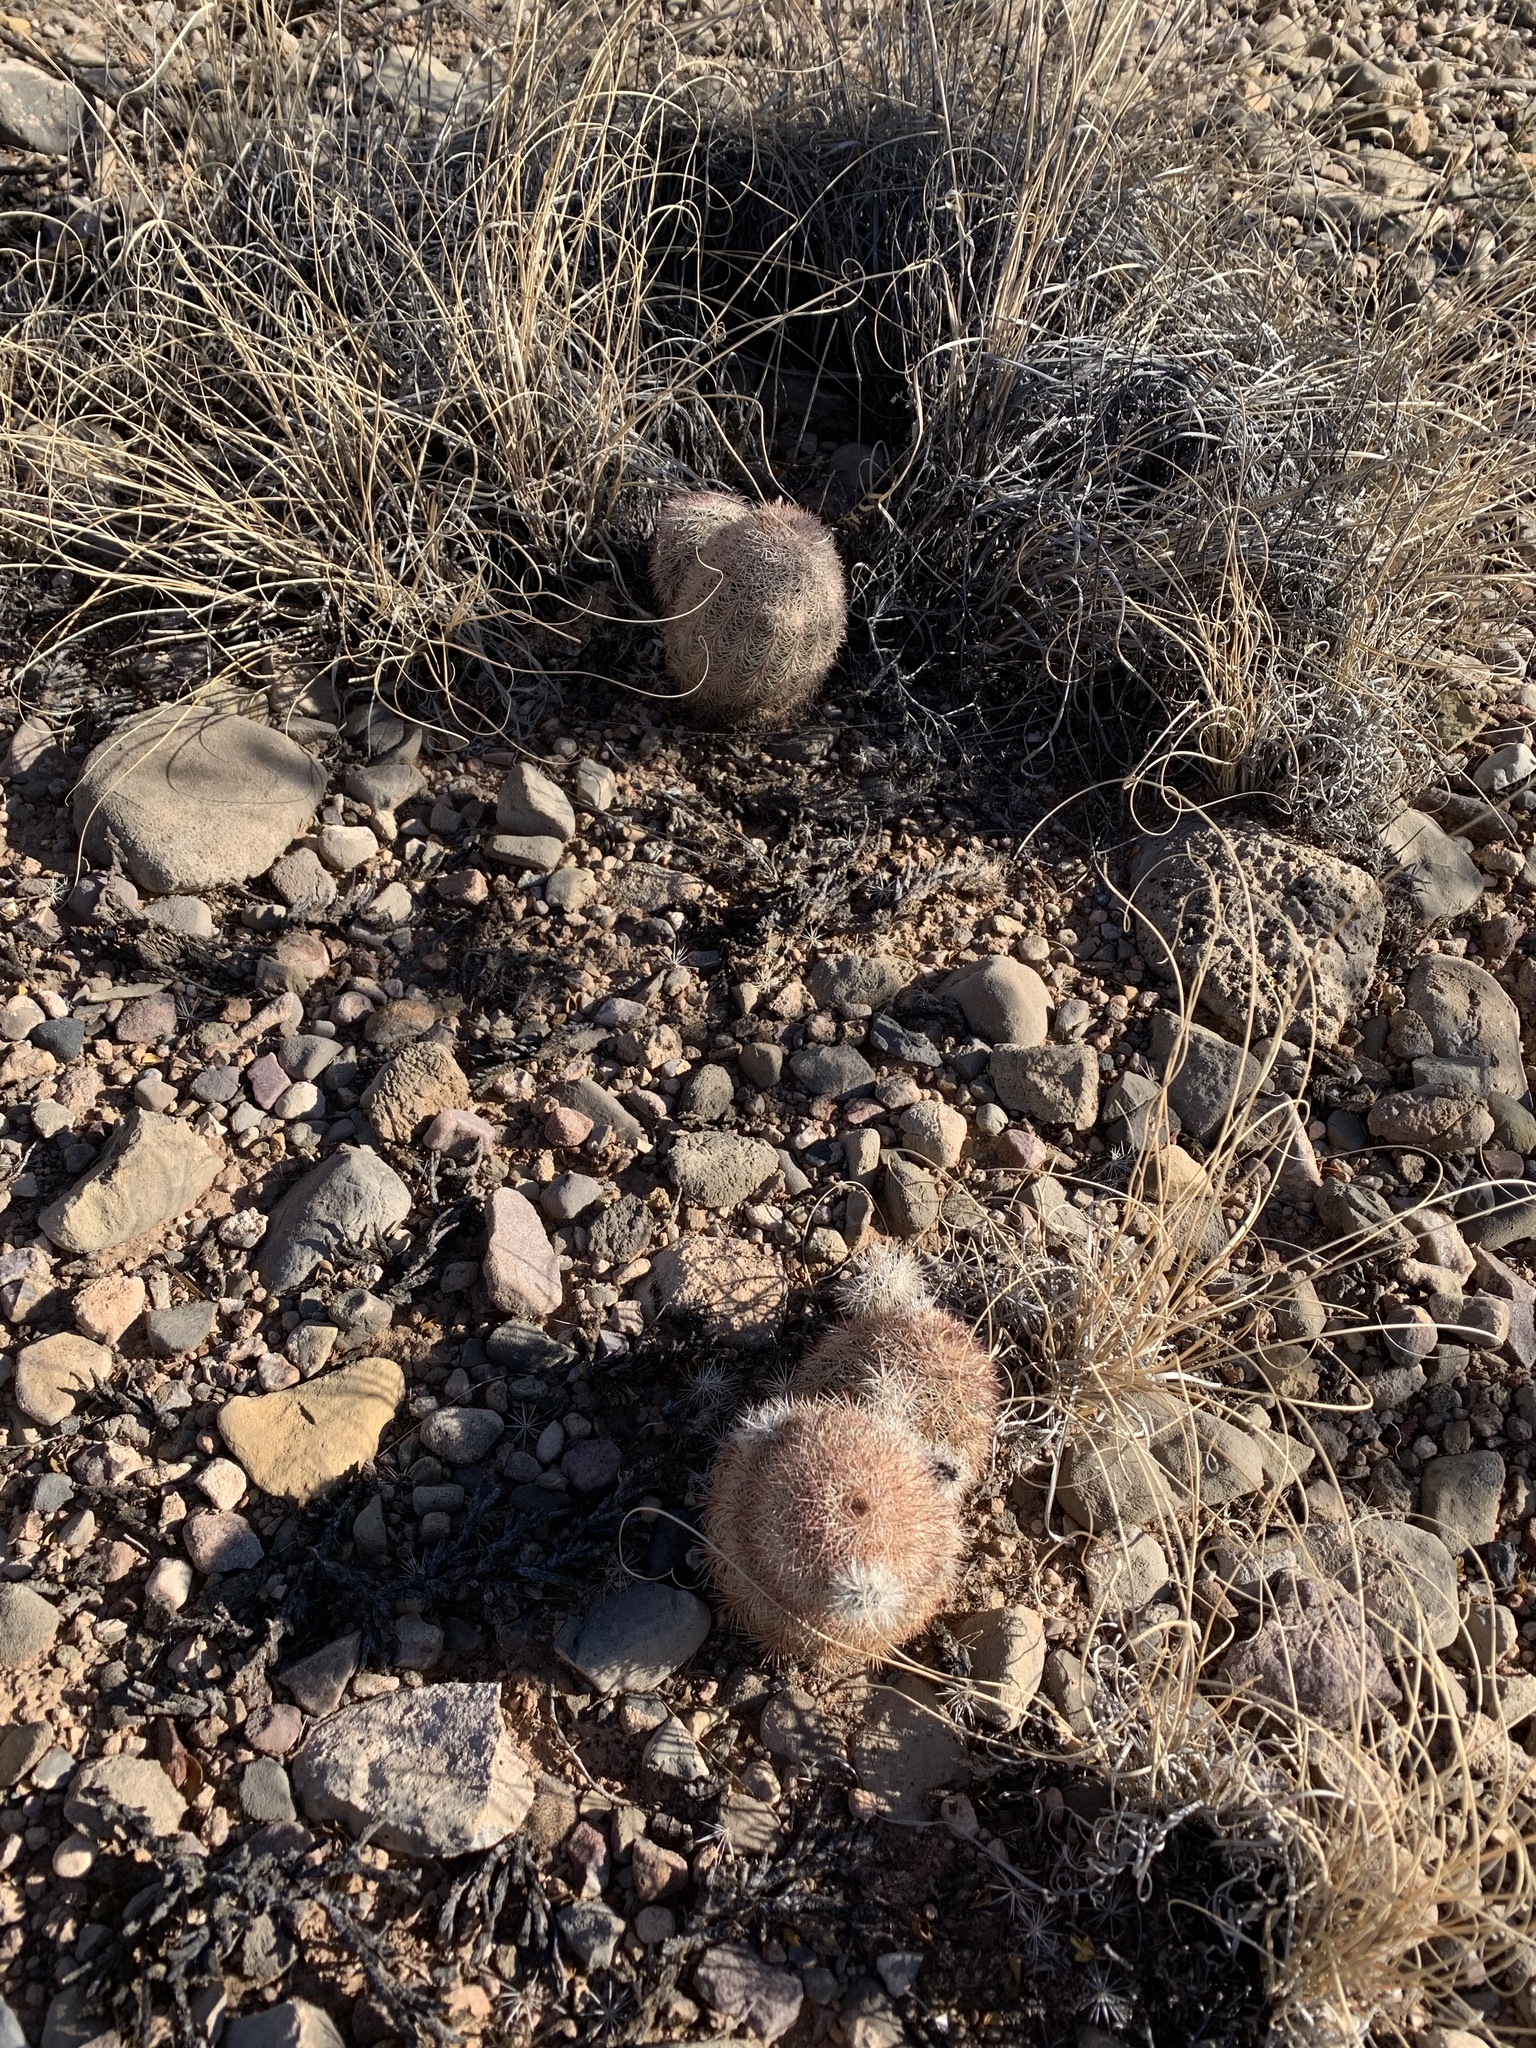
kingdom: Plantae
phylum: Tracheophyta
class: Magnoliopsida
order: Caryophyllales
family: Cactaceae
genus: Echinocereus
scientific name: Echinocereus dasyacanthus
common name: Spiny hedgehog cactus
